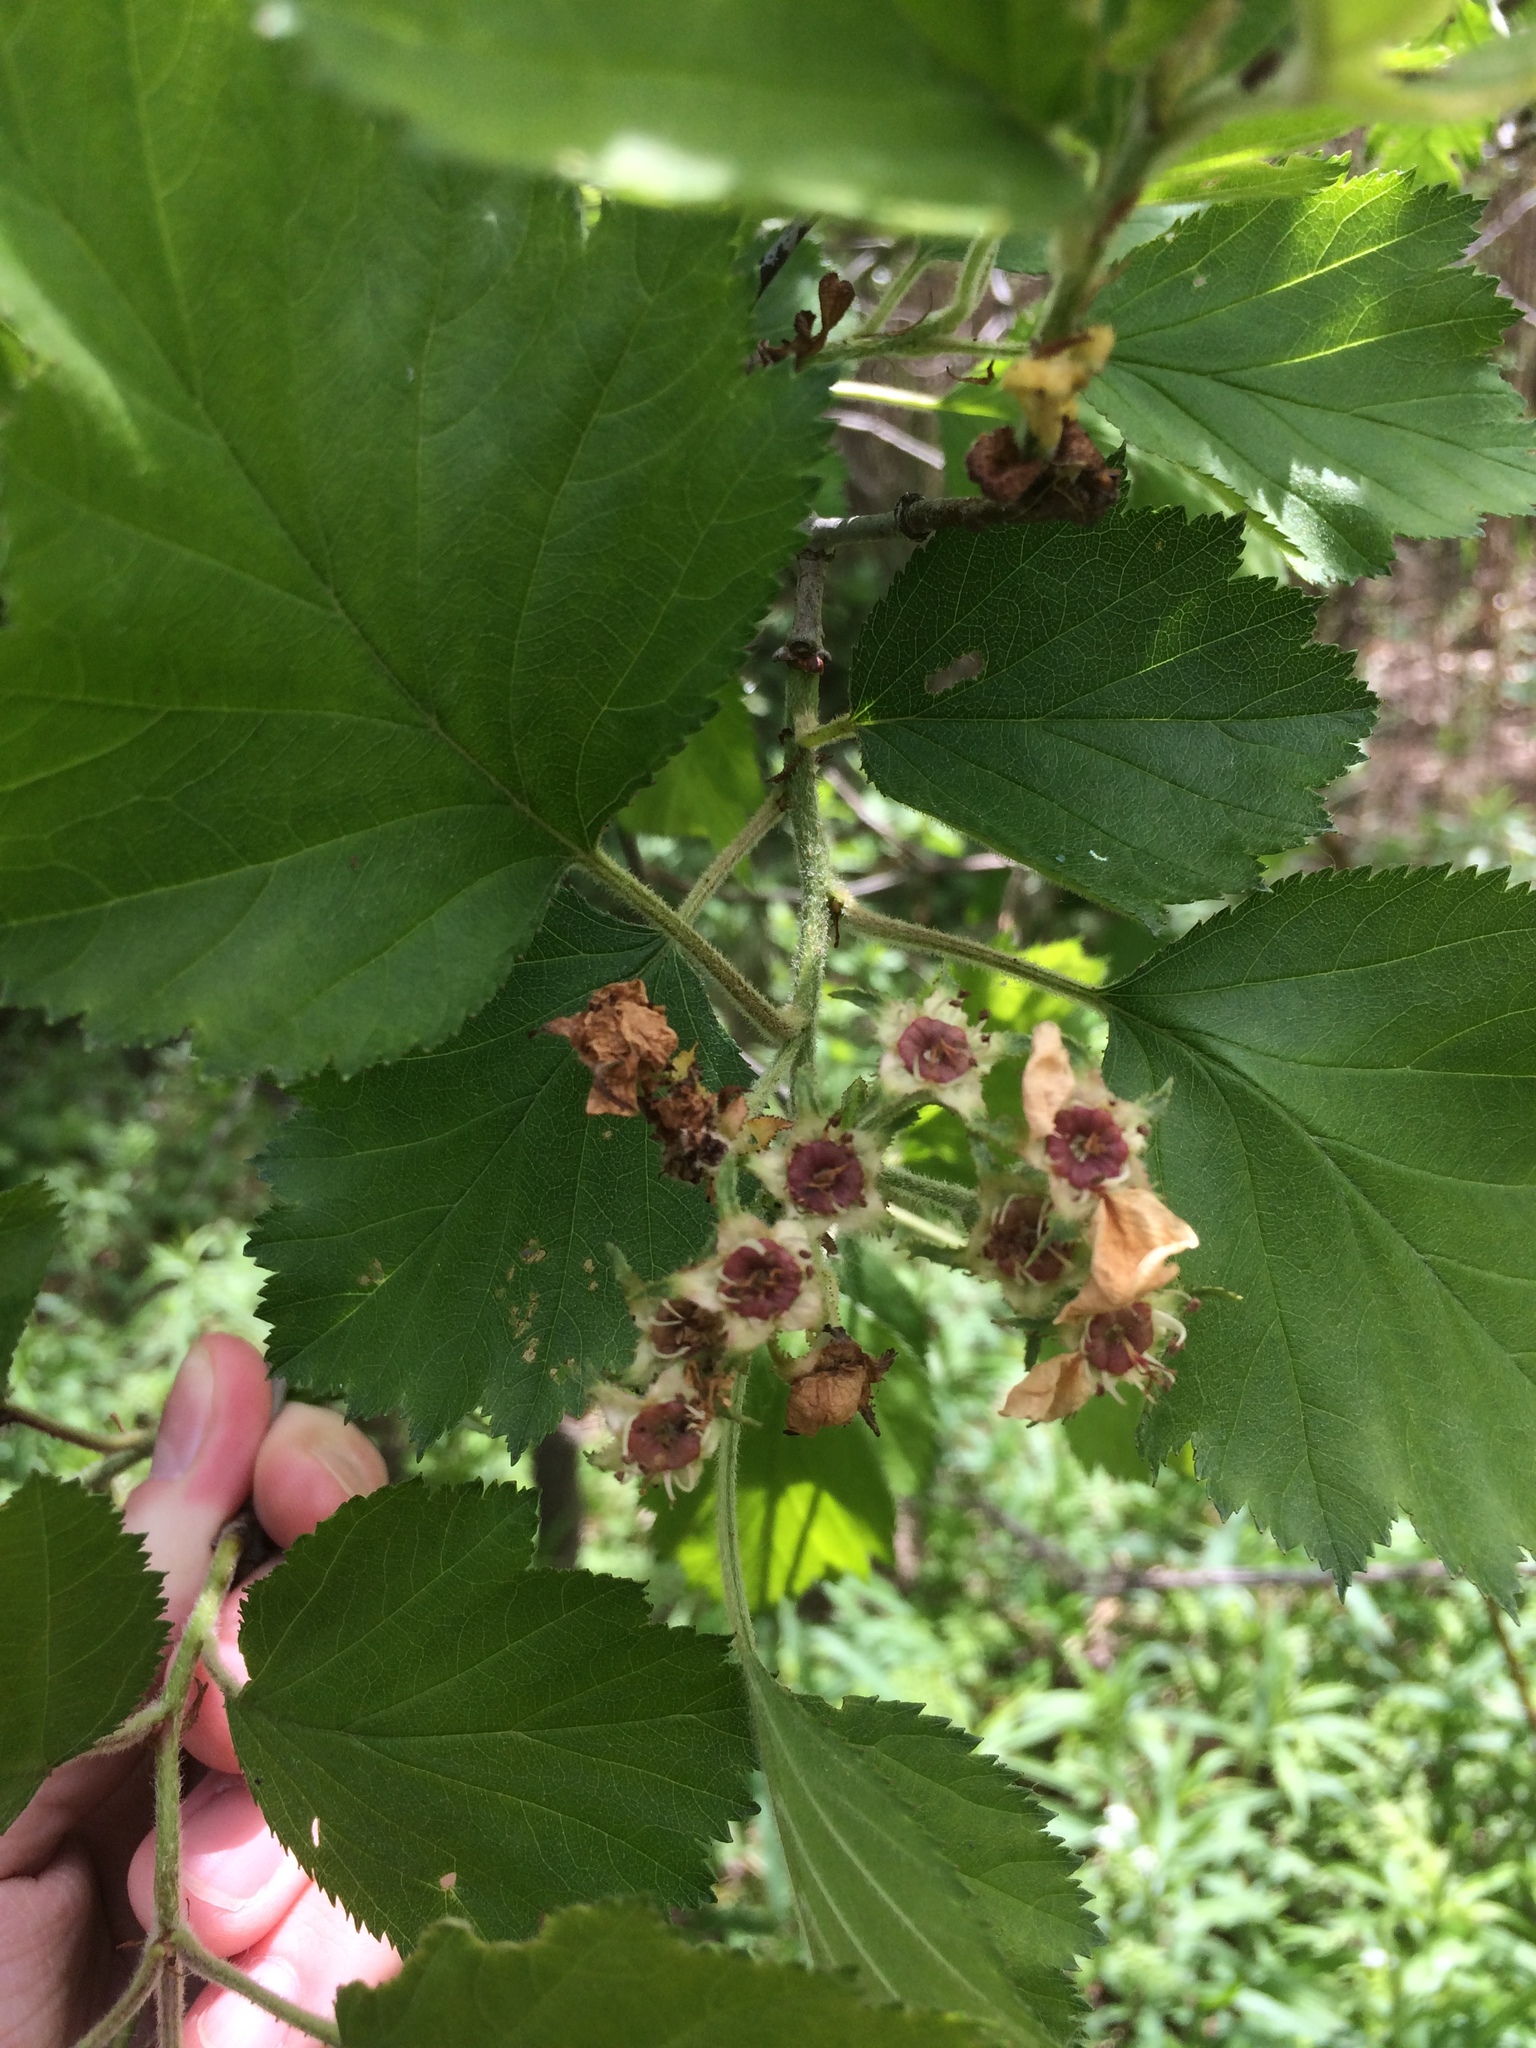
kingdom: Plantae
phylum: Tracheophyta
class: Magnoliopsida
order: Rosales
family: Rosaceae
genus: Crataegus
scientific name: Crataegus submollis
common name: Hairy cockspurthorn
